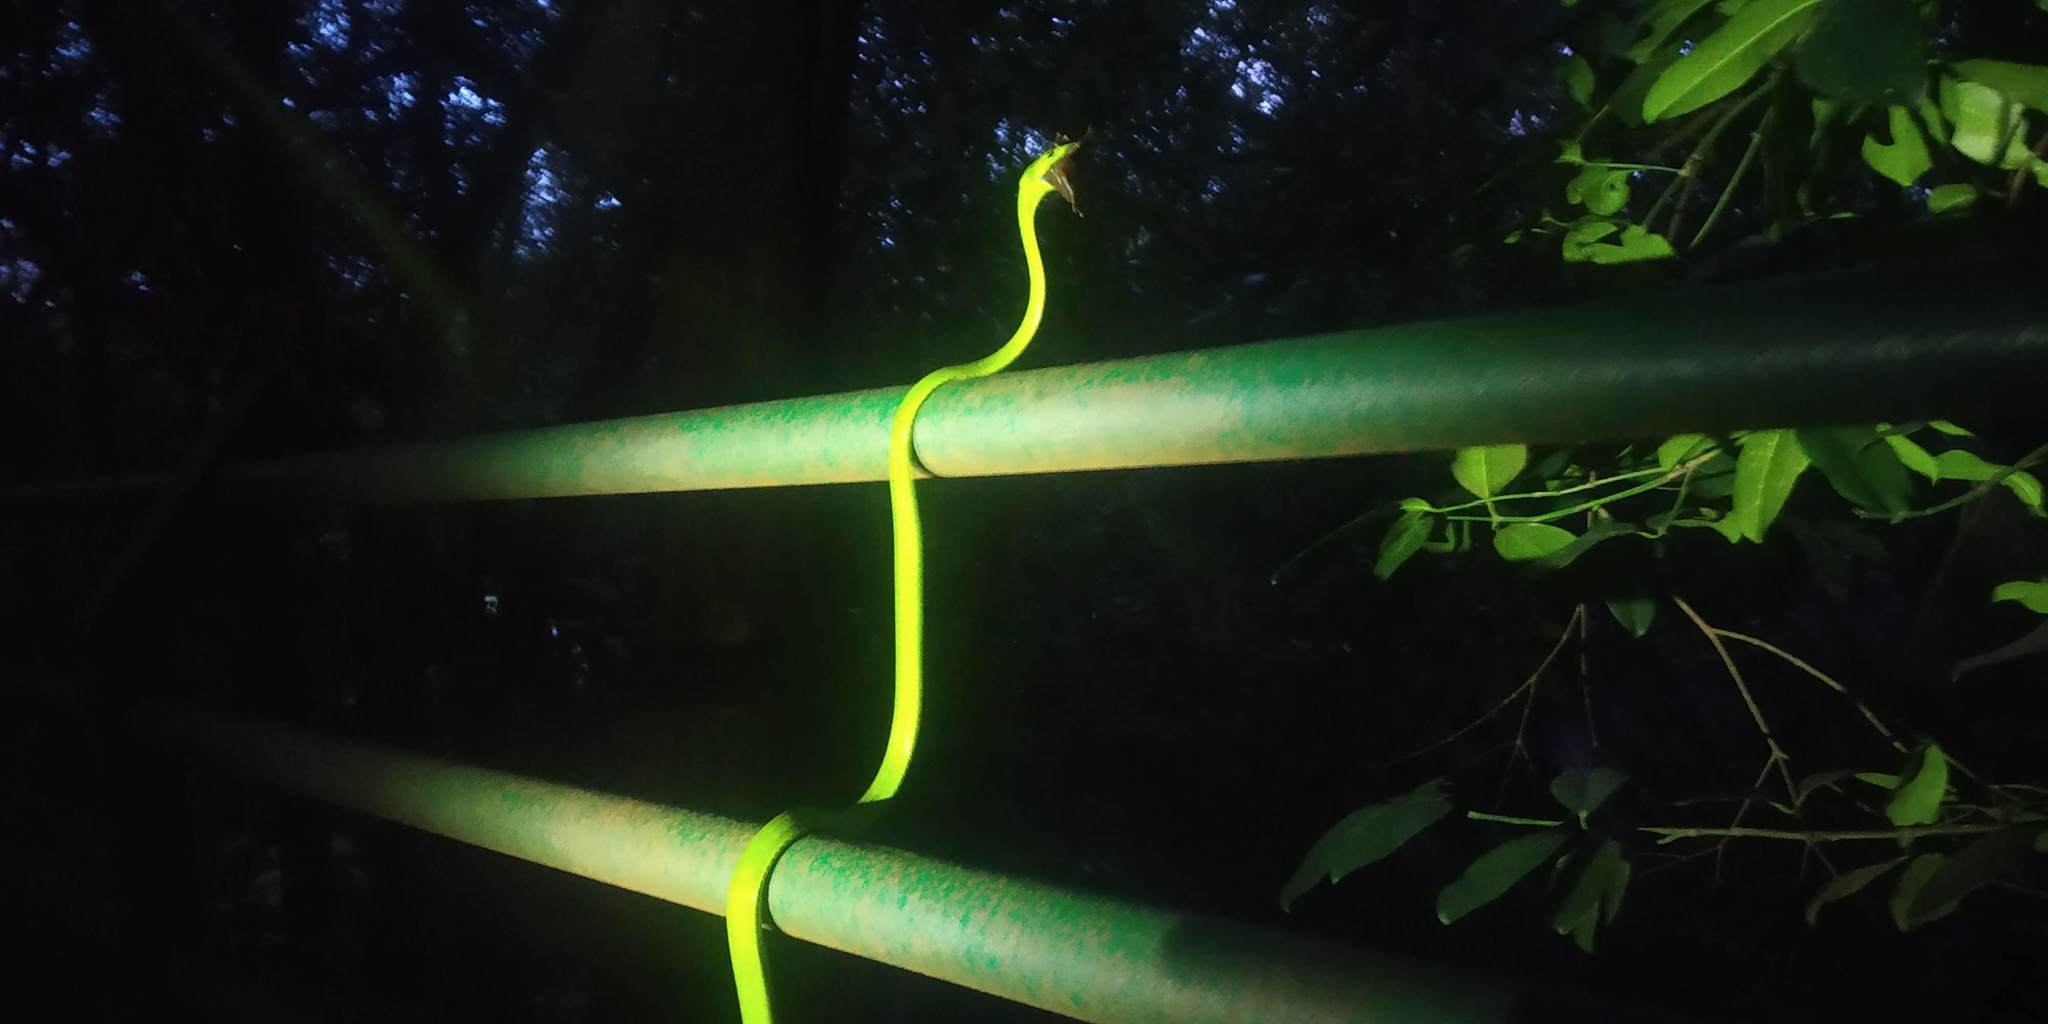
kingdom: Animalia
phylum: Chordata
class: Squamata
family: Colubridae
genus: Ahaetulla
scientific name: Ahaetulla borealis
